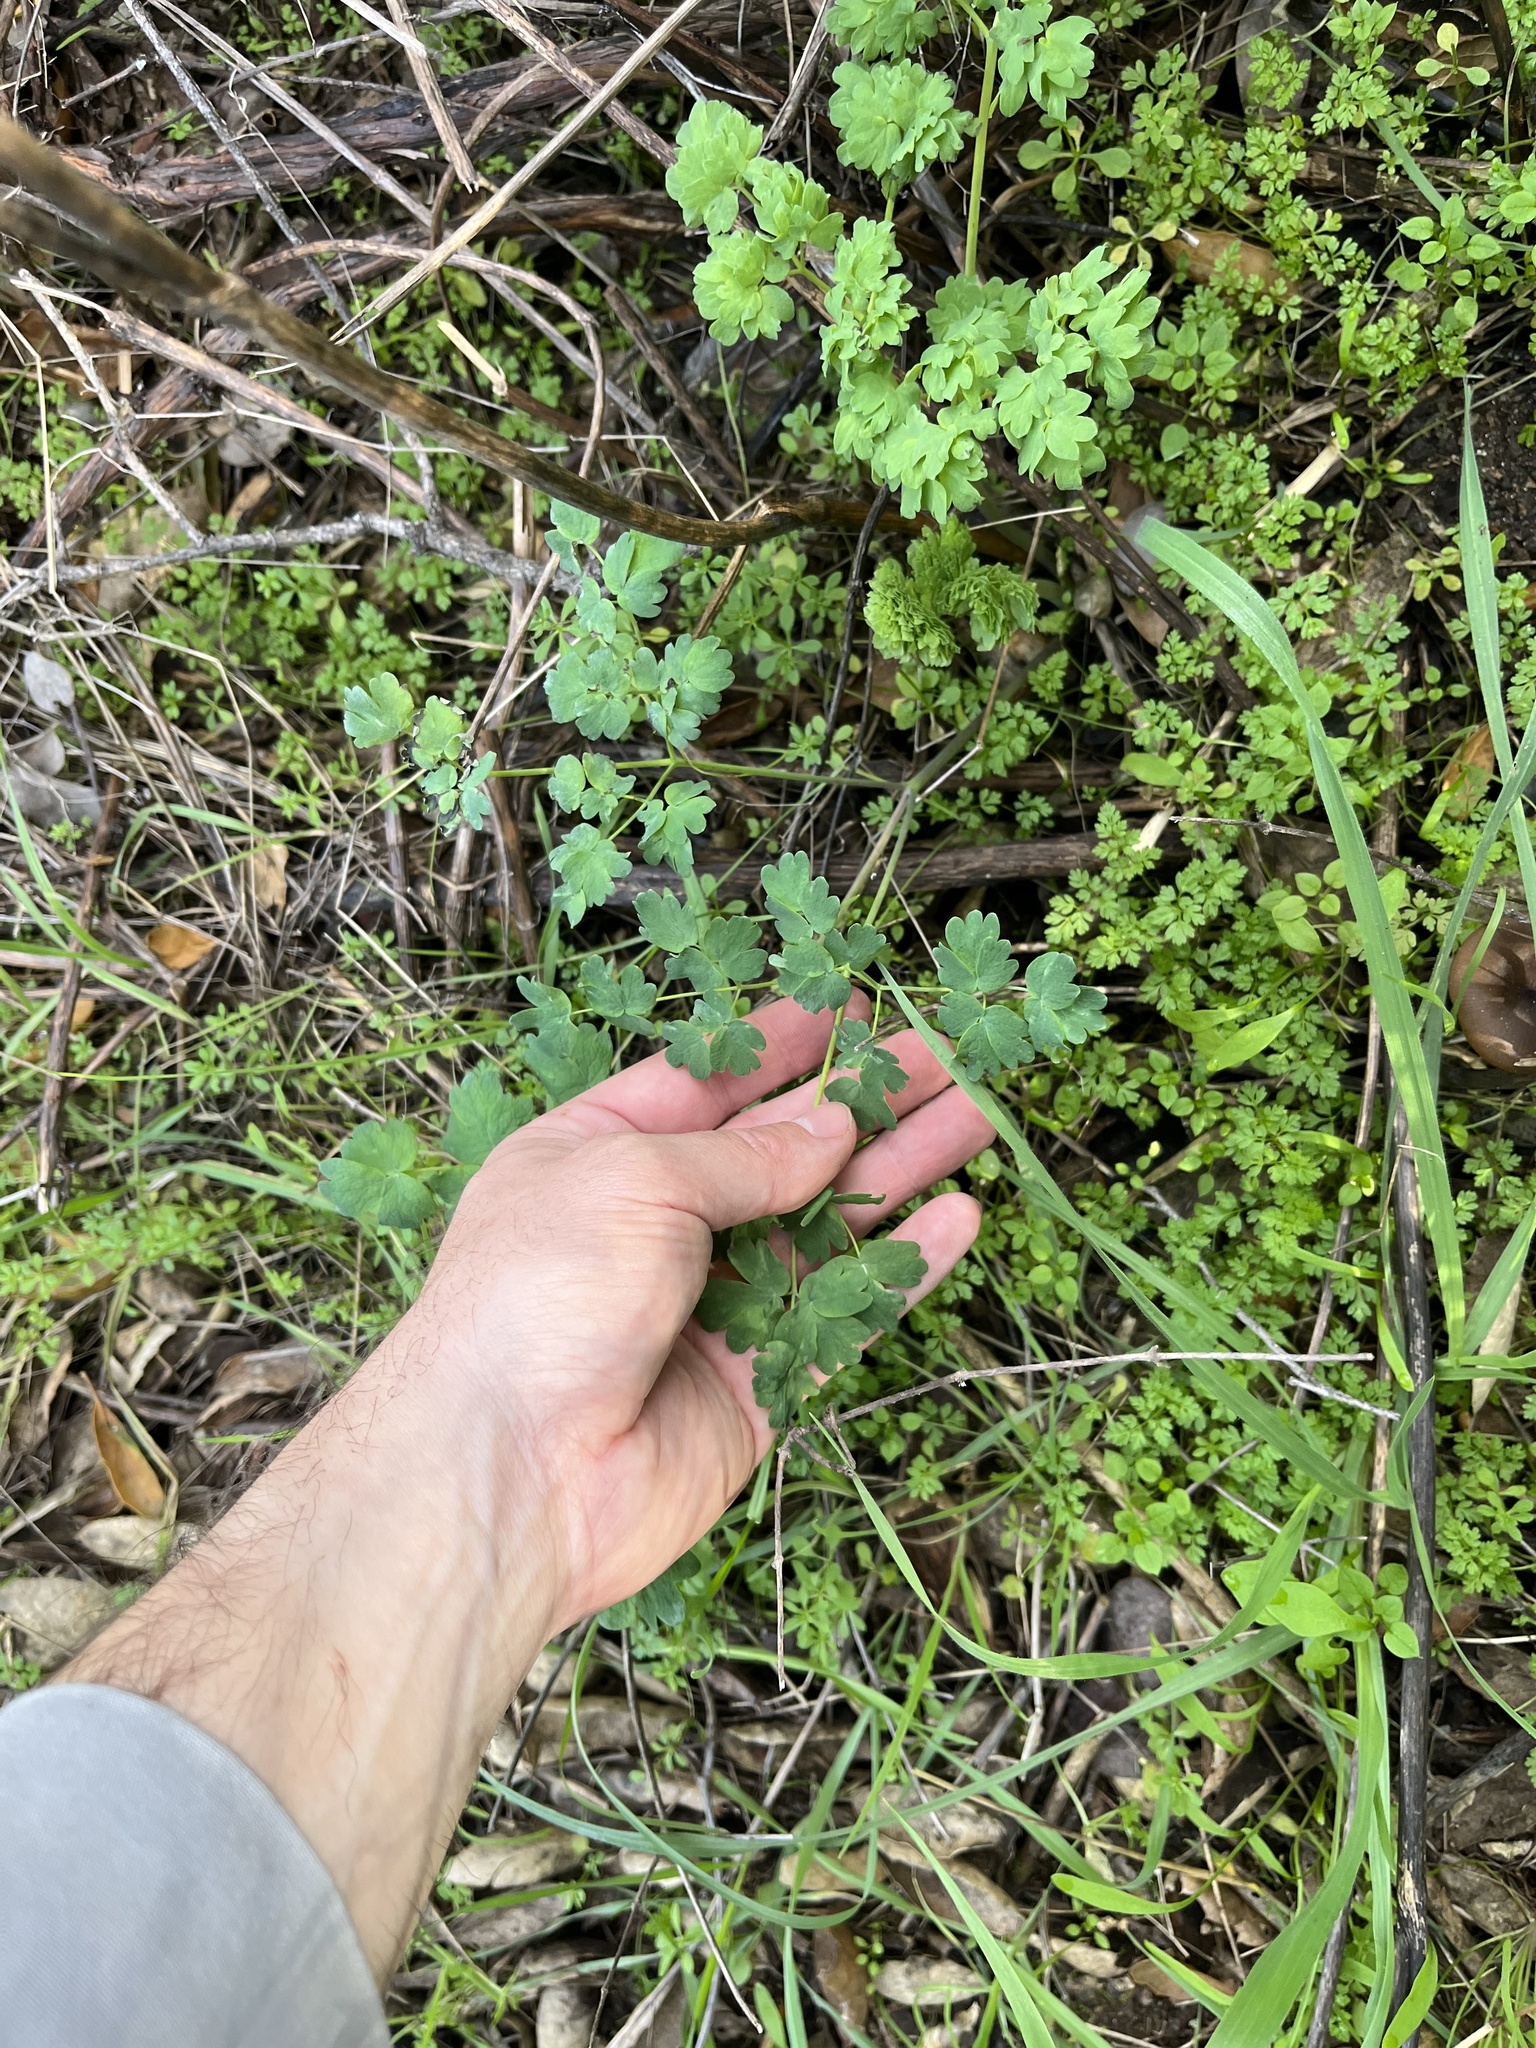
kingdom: Plantae
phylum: Tracheophyta
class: Magnoliopsida
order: Ranunculales
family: Ranunculaceae
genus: Thalictrum
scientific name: Thalictrum fendleri
